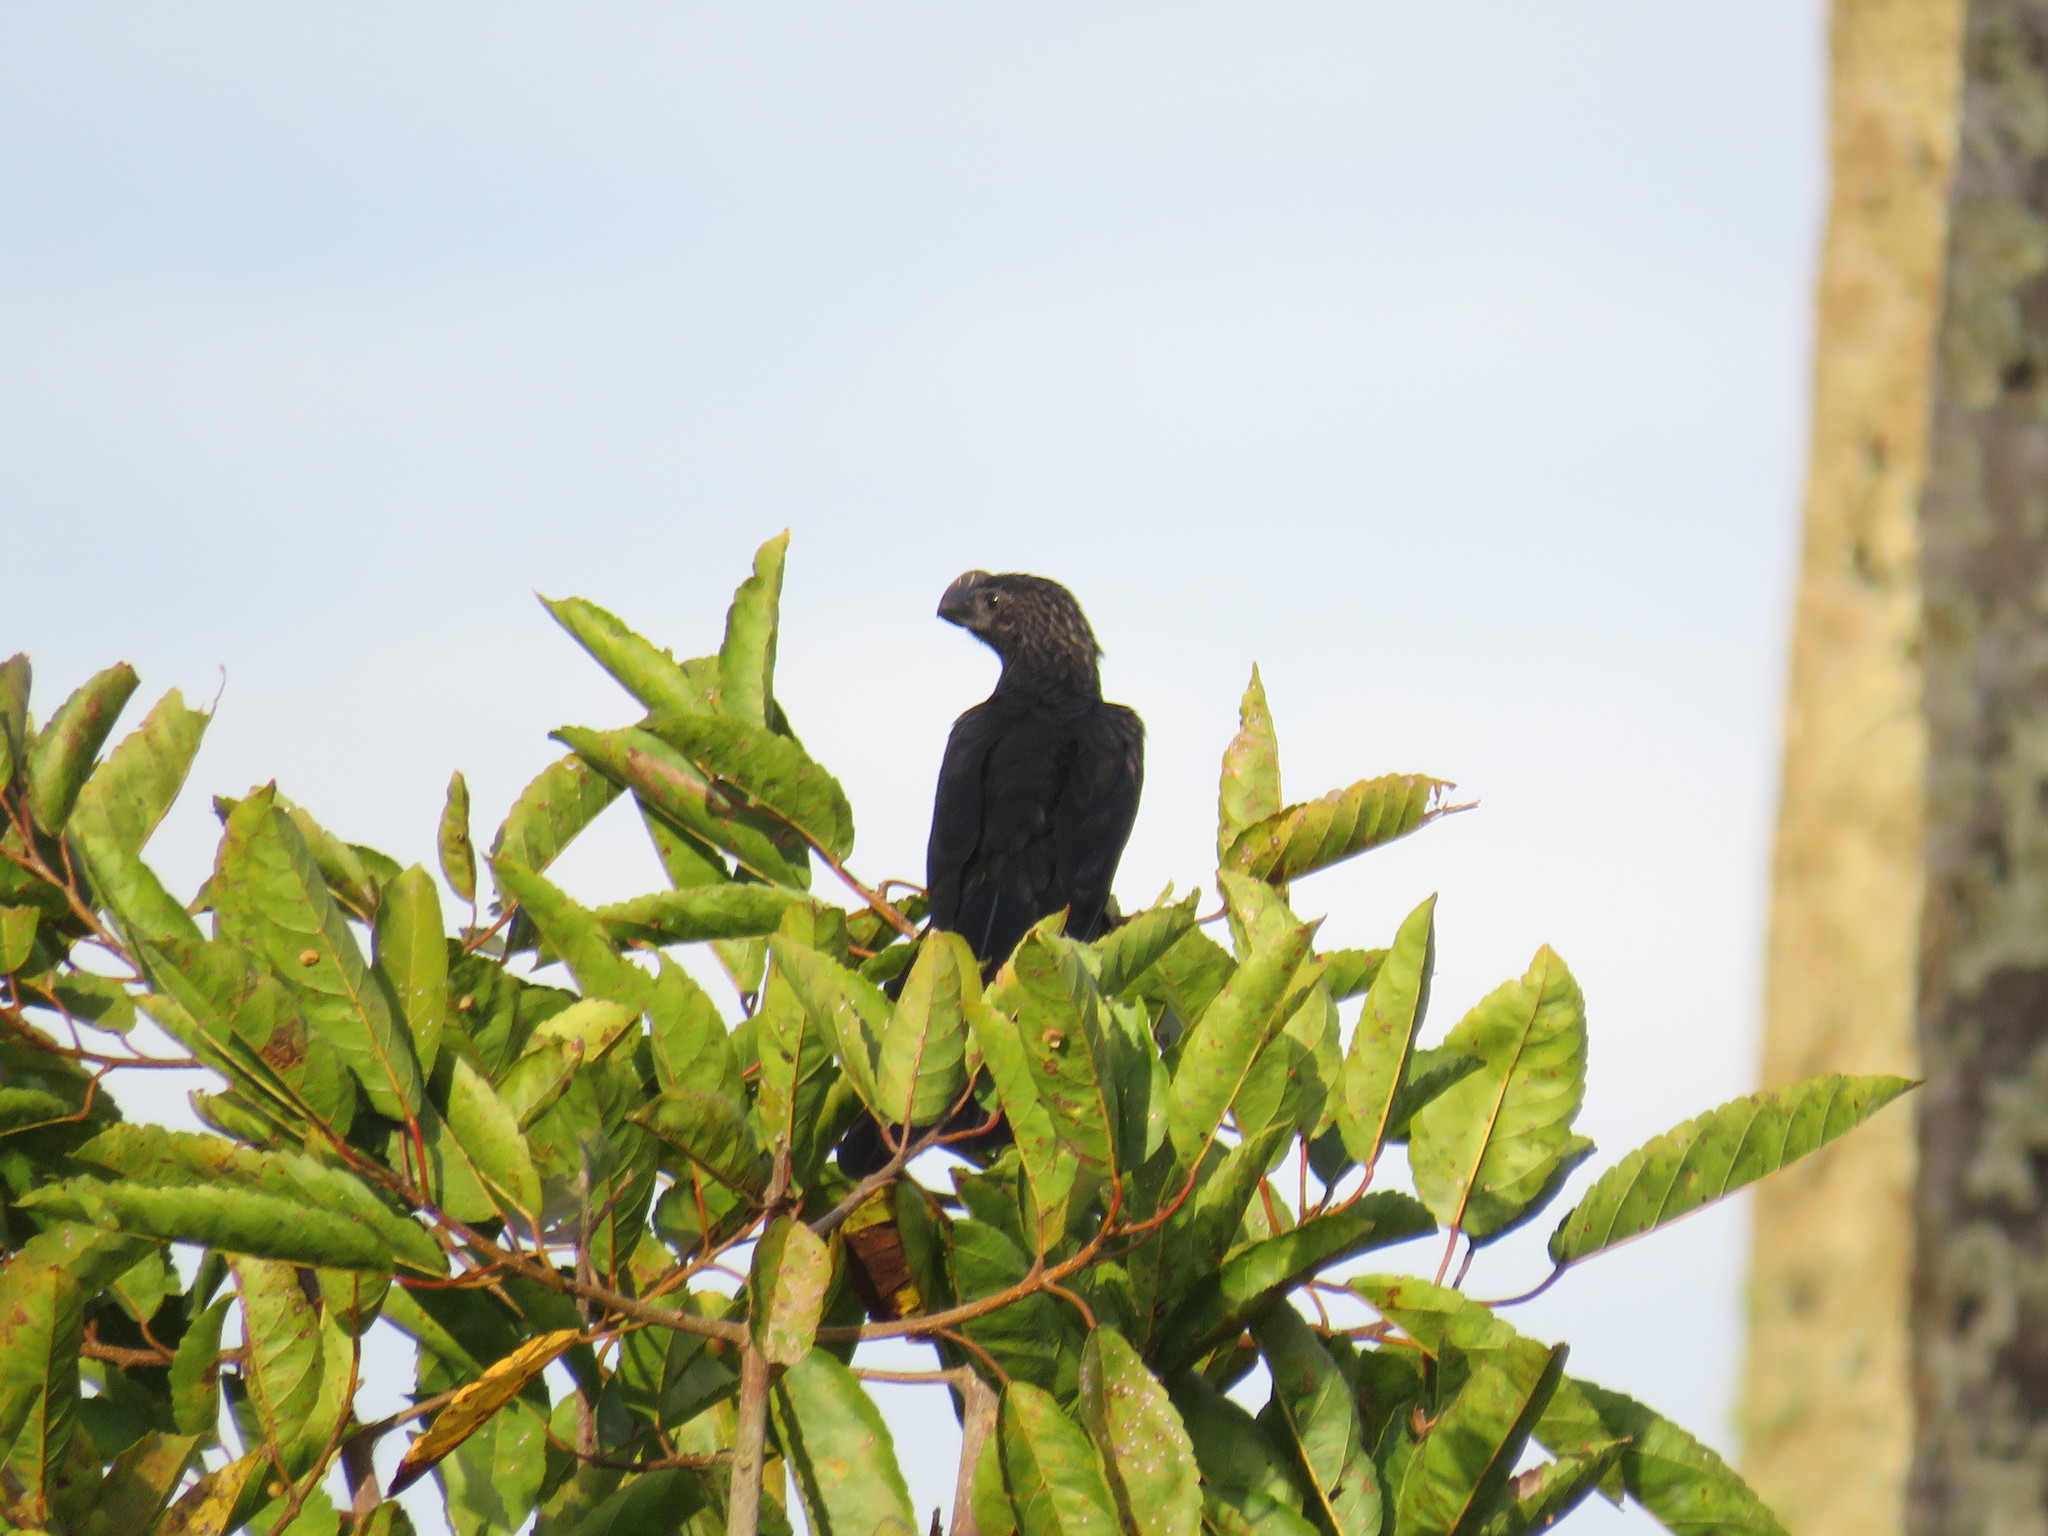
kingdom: Animalia
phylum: Chordata
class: Aves
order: Cuculiformes
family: Cuculidae
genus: Crotophaga
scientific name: Crotophaga ani
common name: Smooth-billed ani
